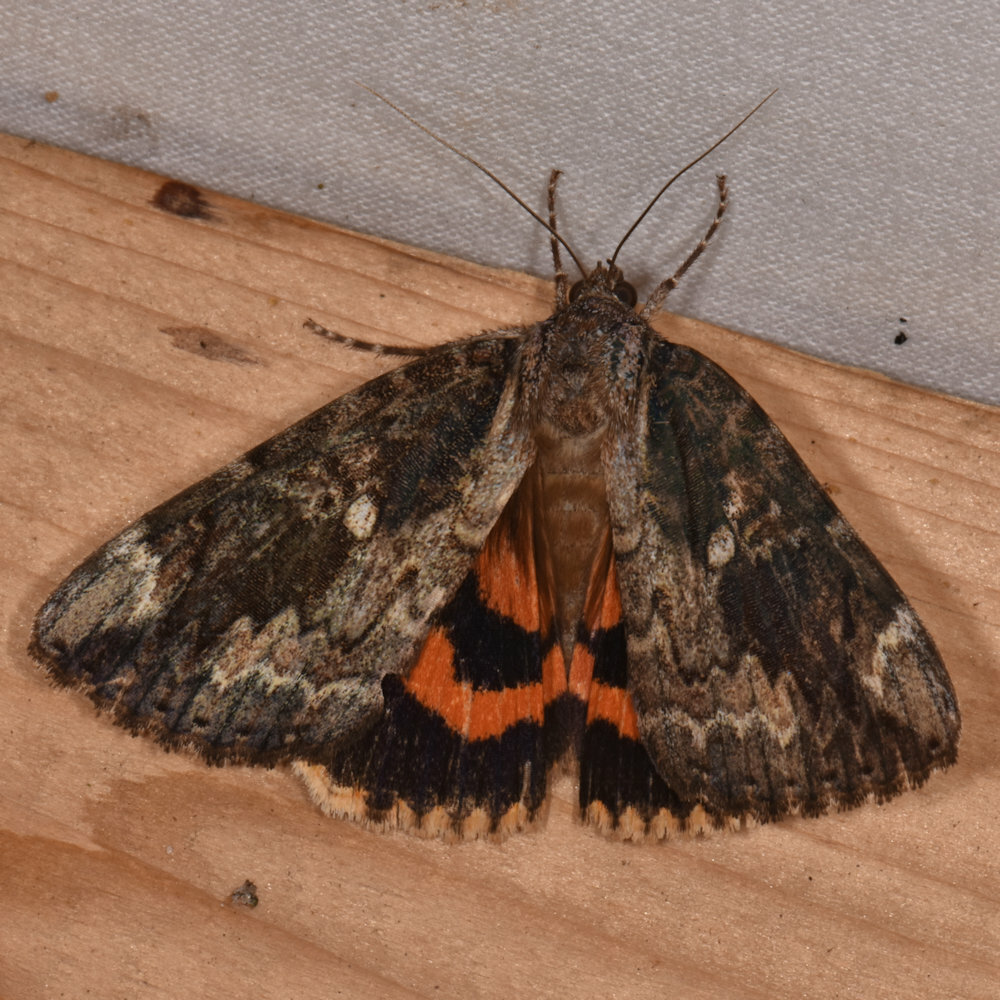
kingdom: Animalia
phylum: Arthropoda
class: Insecta
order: Lepidoptera
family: Erebidae
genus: Catocala
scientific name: Catocala innubens
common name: Betrothed underwing
